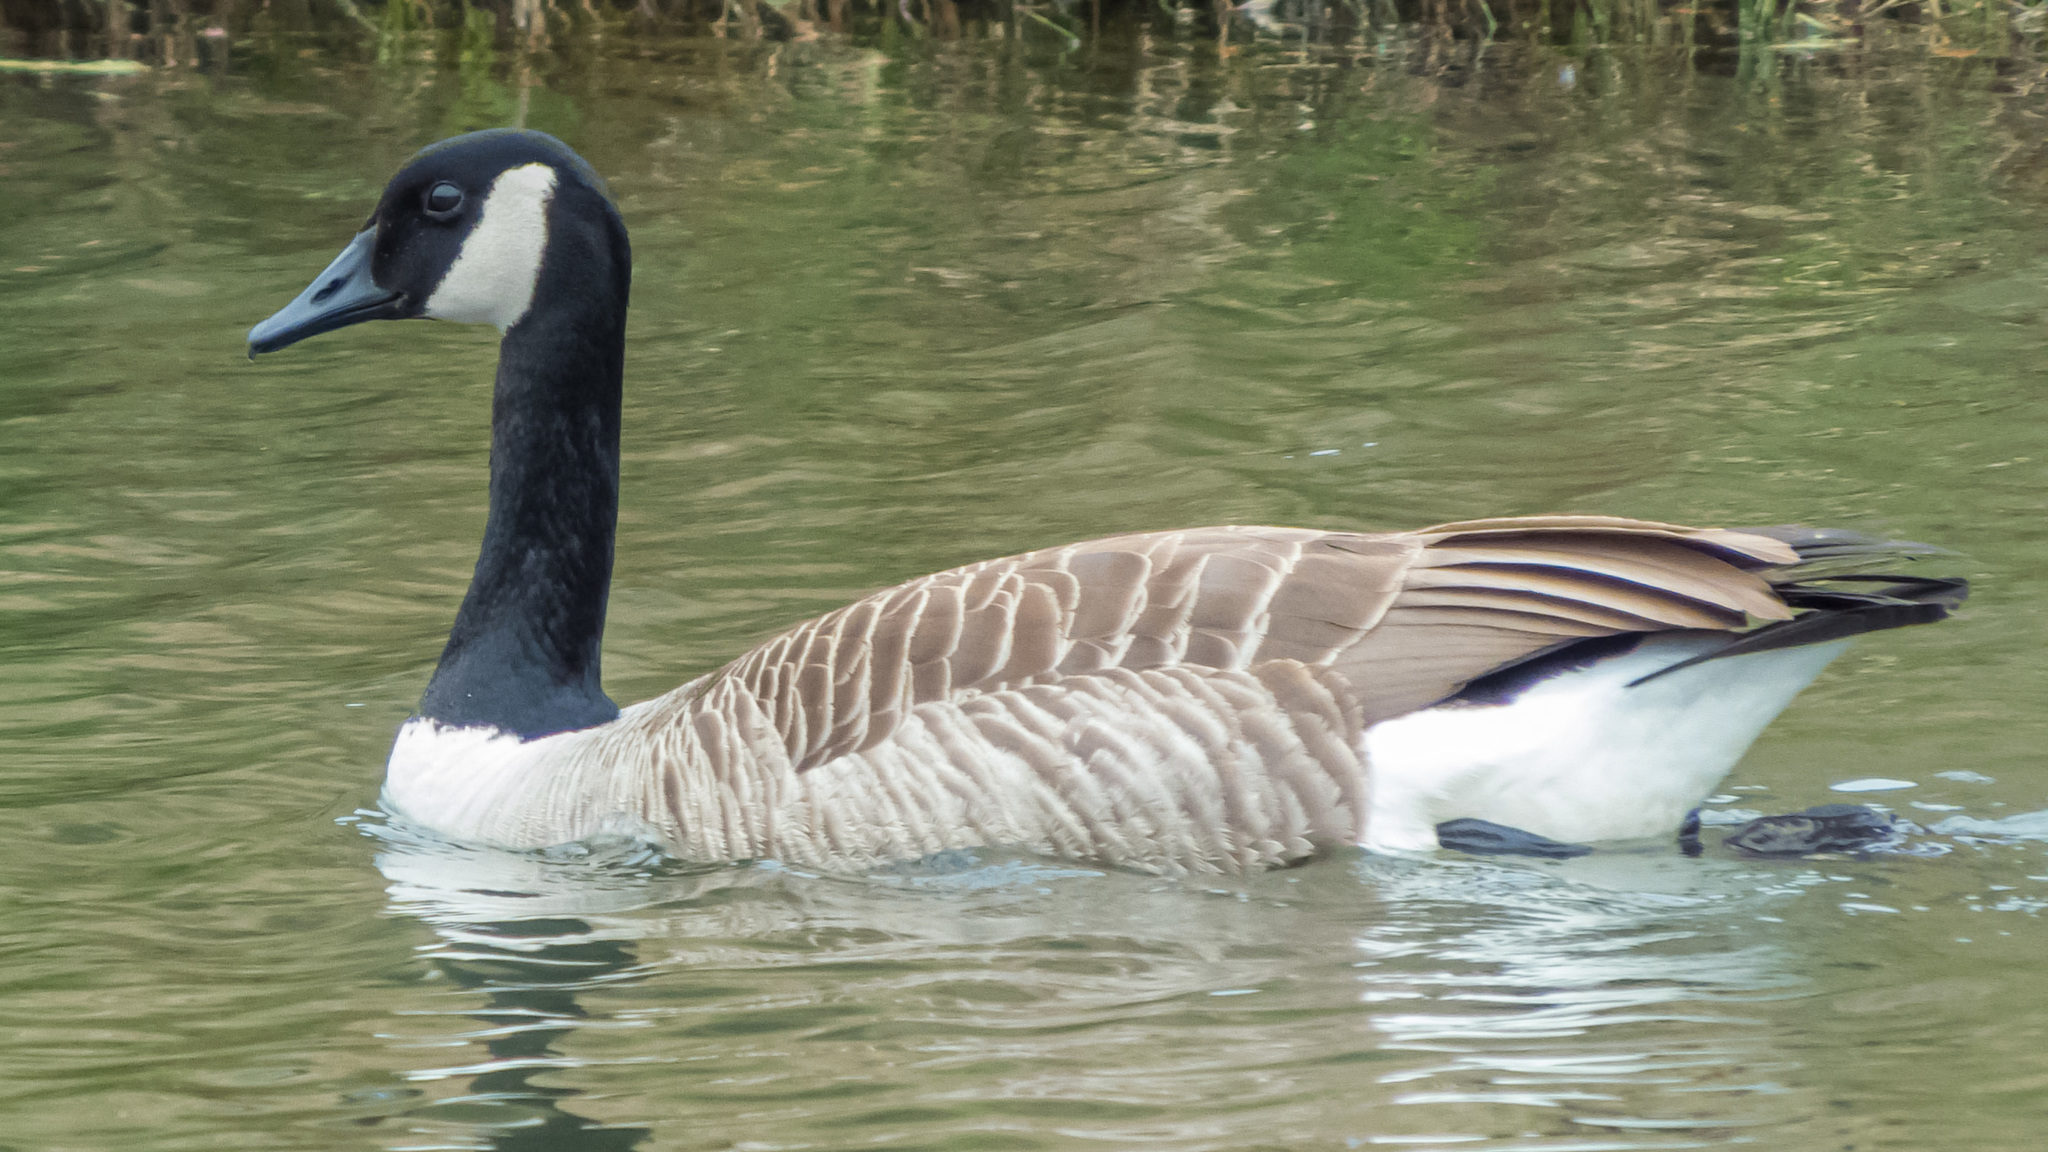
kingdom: Animalia
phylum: Chordata
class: Aves
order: Anseriformes
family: Anatidae
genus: Branta
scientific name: Branta canadensis
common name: Canada goose
